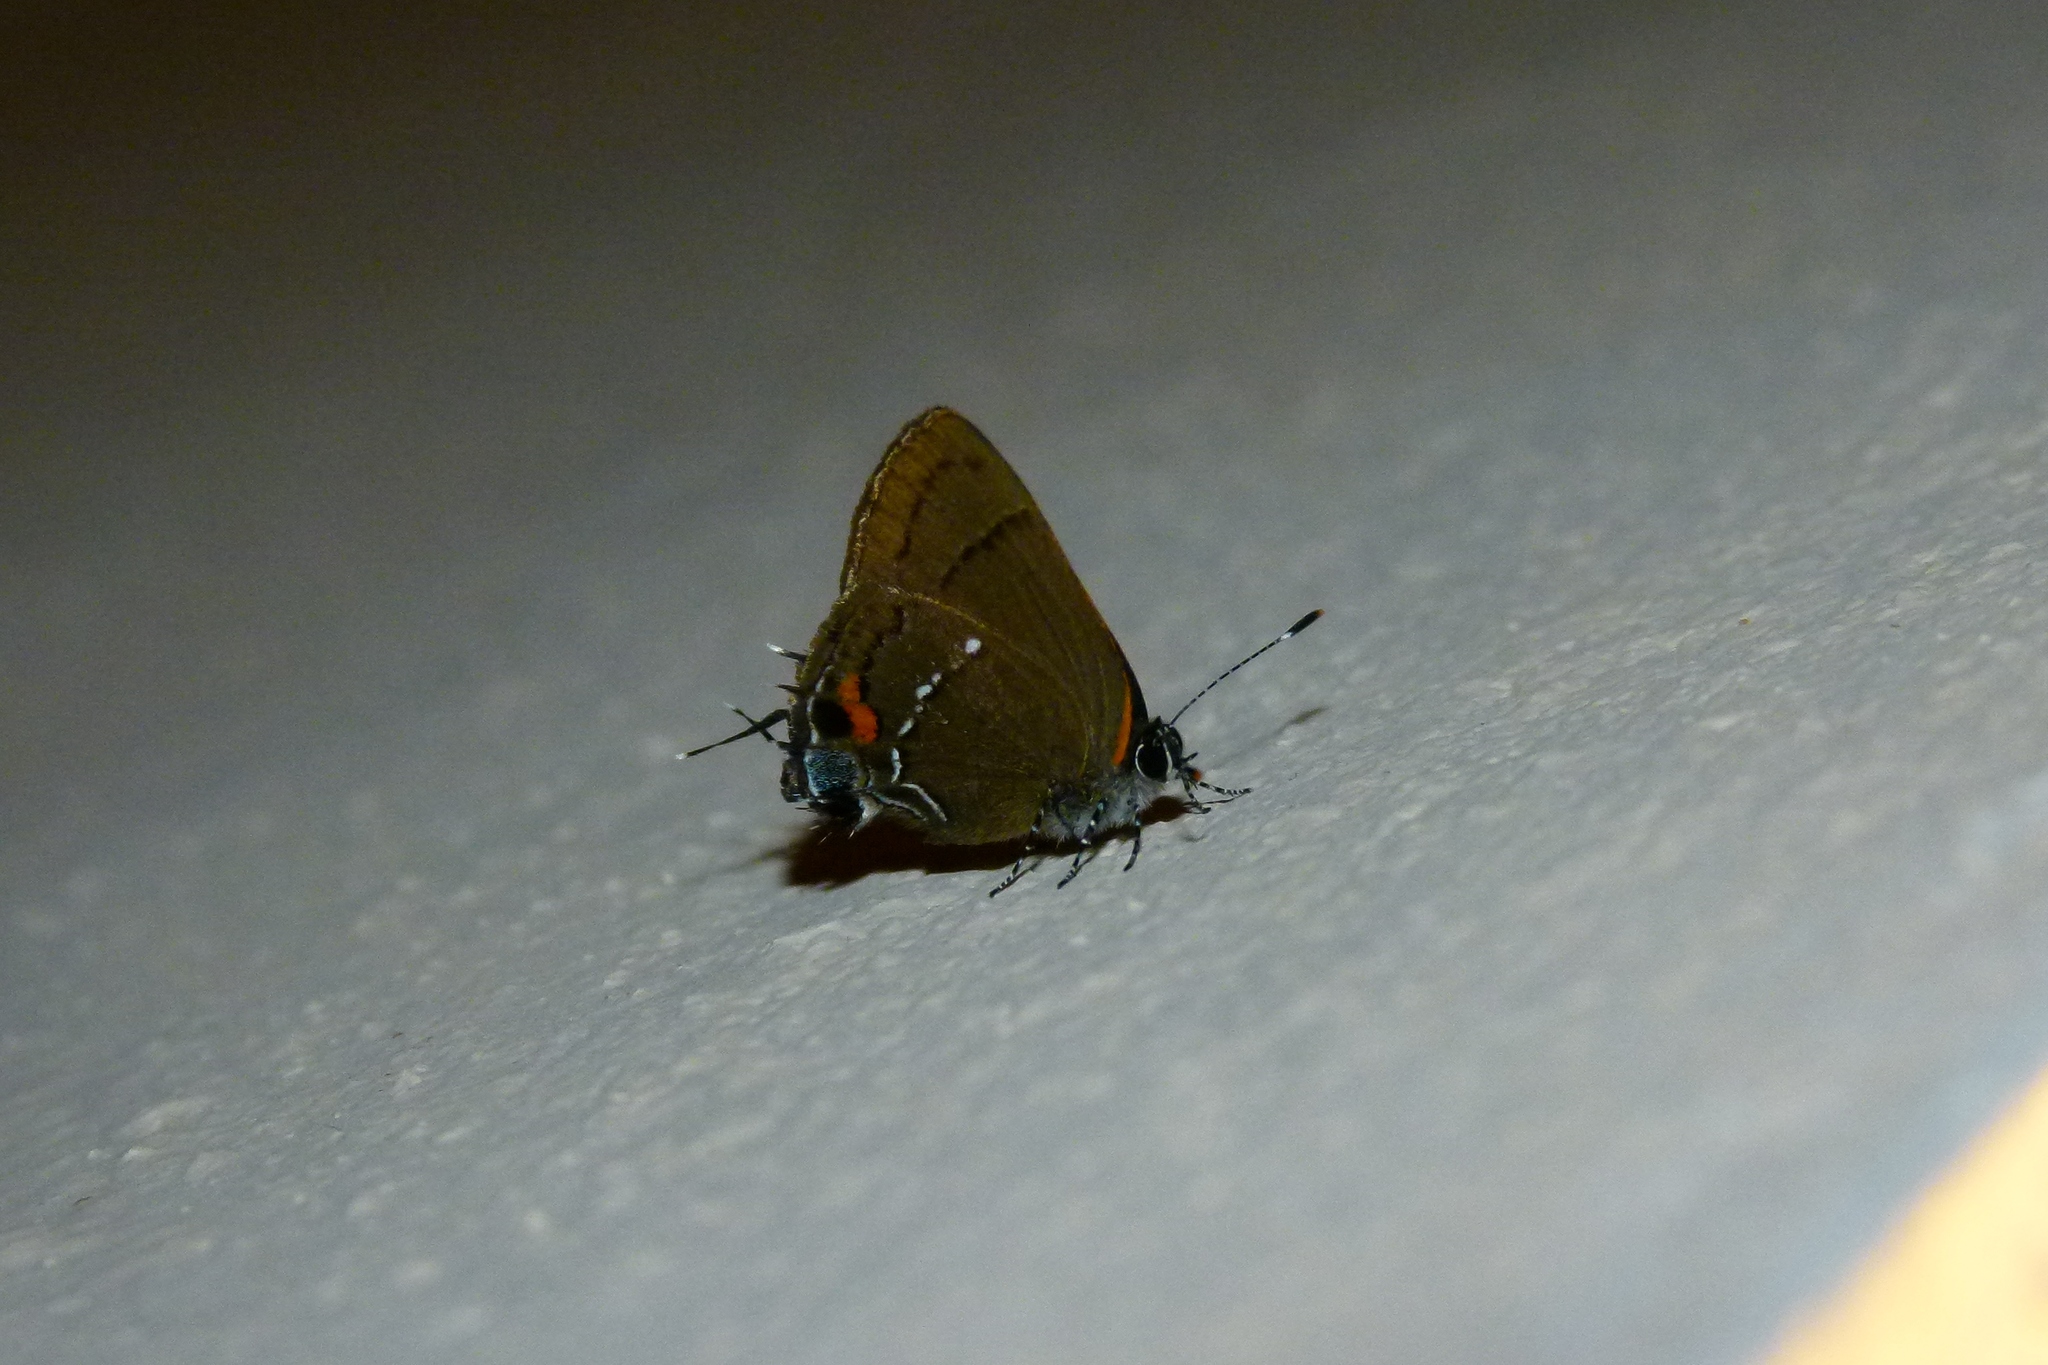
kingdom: Animalia
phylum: Arthropoda
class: Insecta
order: Lepidoptera
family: Lycaenidae
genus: Thecla
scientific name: Thecla angelia
